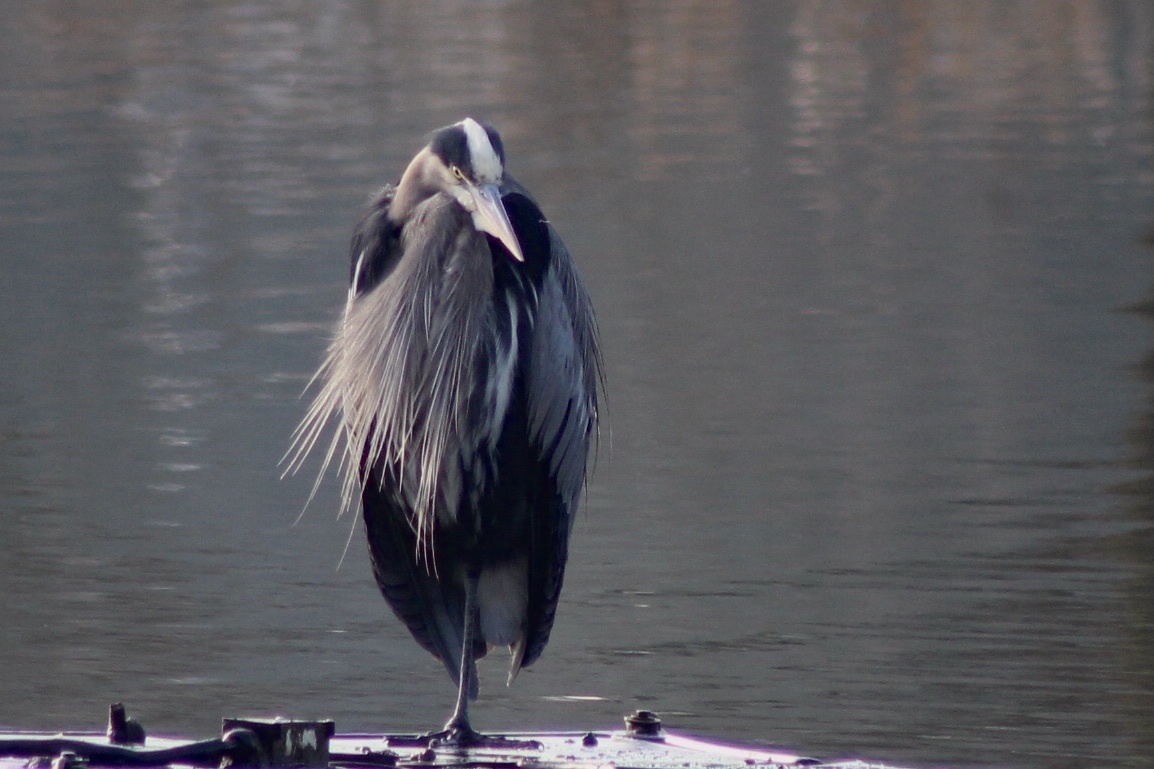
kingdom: Animalia
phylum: Chordata
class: Aves
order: Pelecaniformes
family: Ardeidae
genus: Ardea
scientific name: Ardea herodias
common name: Great blue heron
